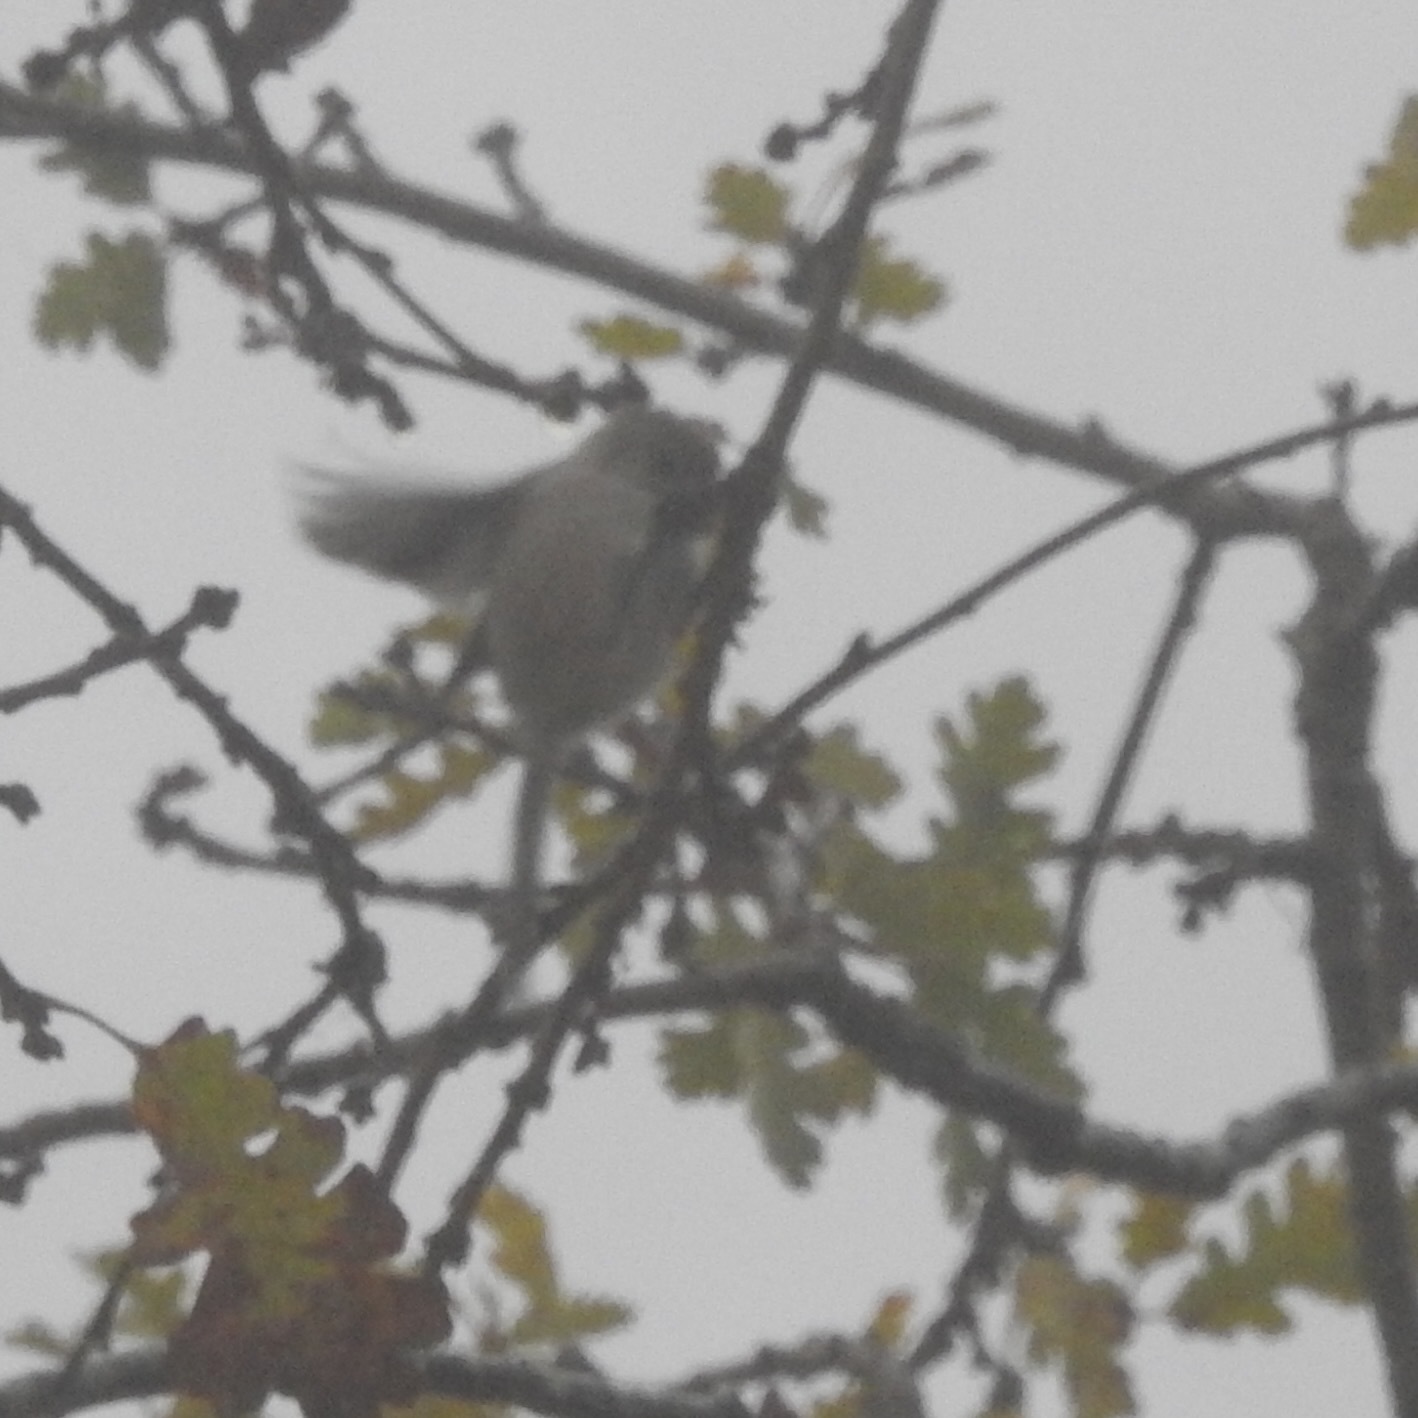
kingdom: Animalia
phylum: Chordata
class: Aves
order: Passeriformes
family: Aegithalidae
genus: Psaltriparus
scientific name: Psaltriparus minimus
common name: American bushtit
